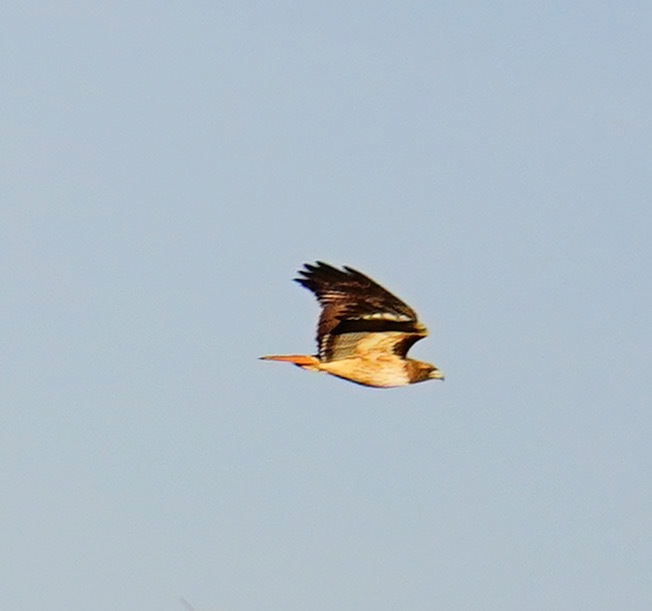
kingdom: Animalia
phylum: Chordata
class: Aves
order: Accipitriformes
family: Accipitridae
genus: Buteo
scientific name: Buteo jamaicensis
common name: Red-tailed hawk
